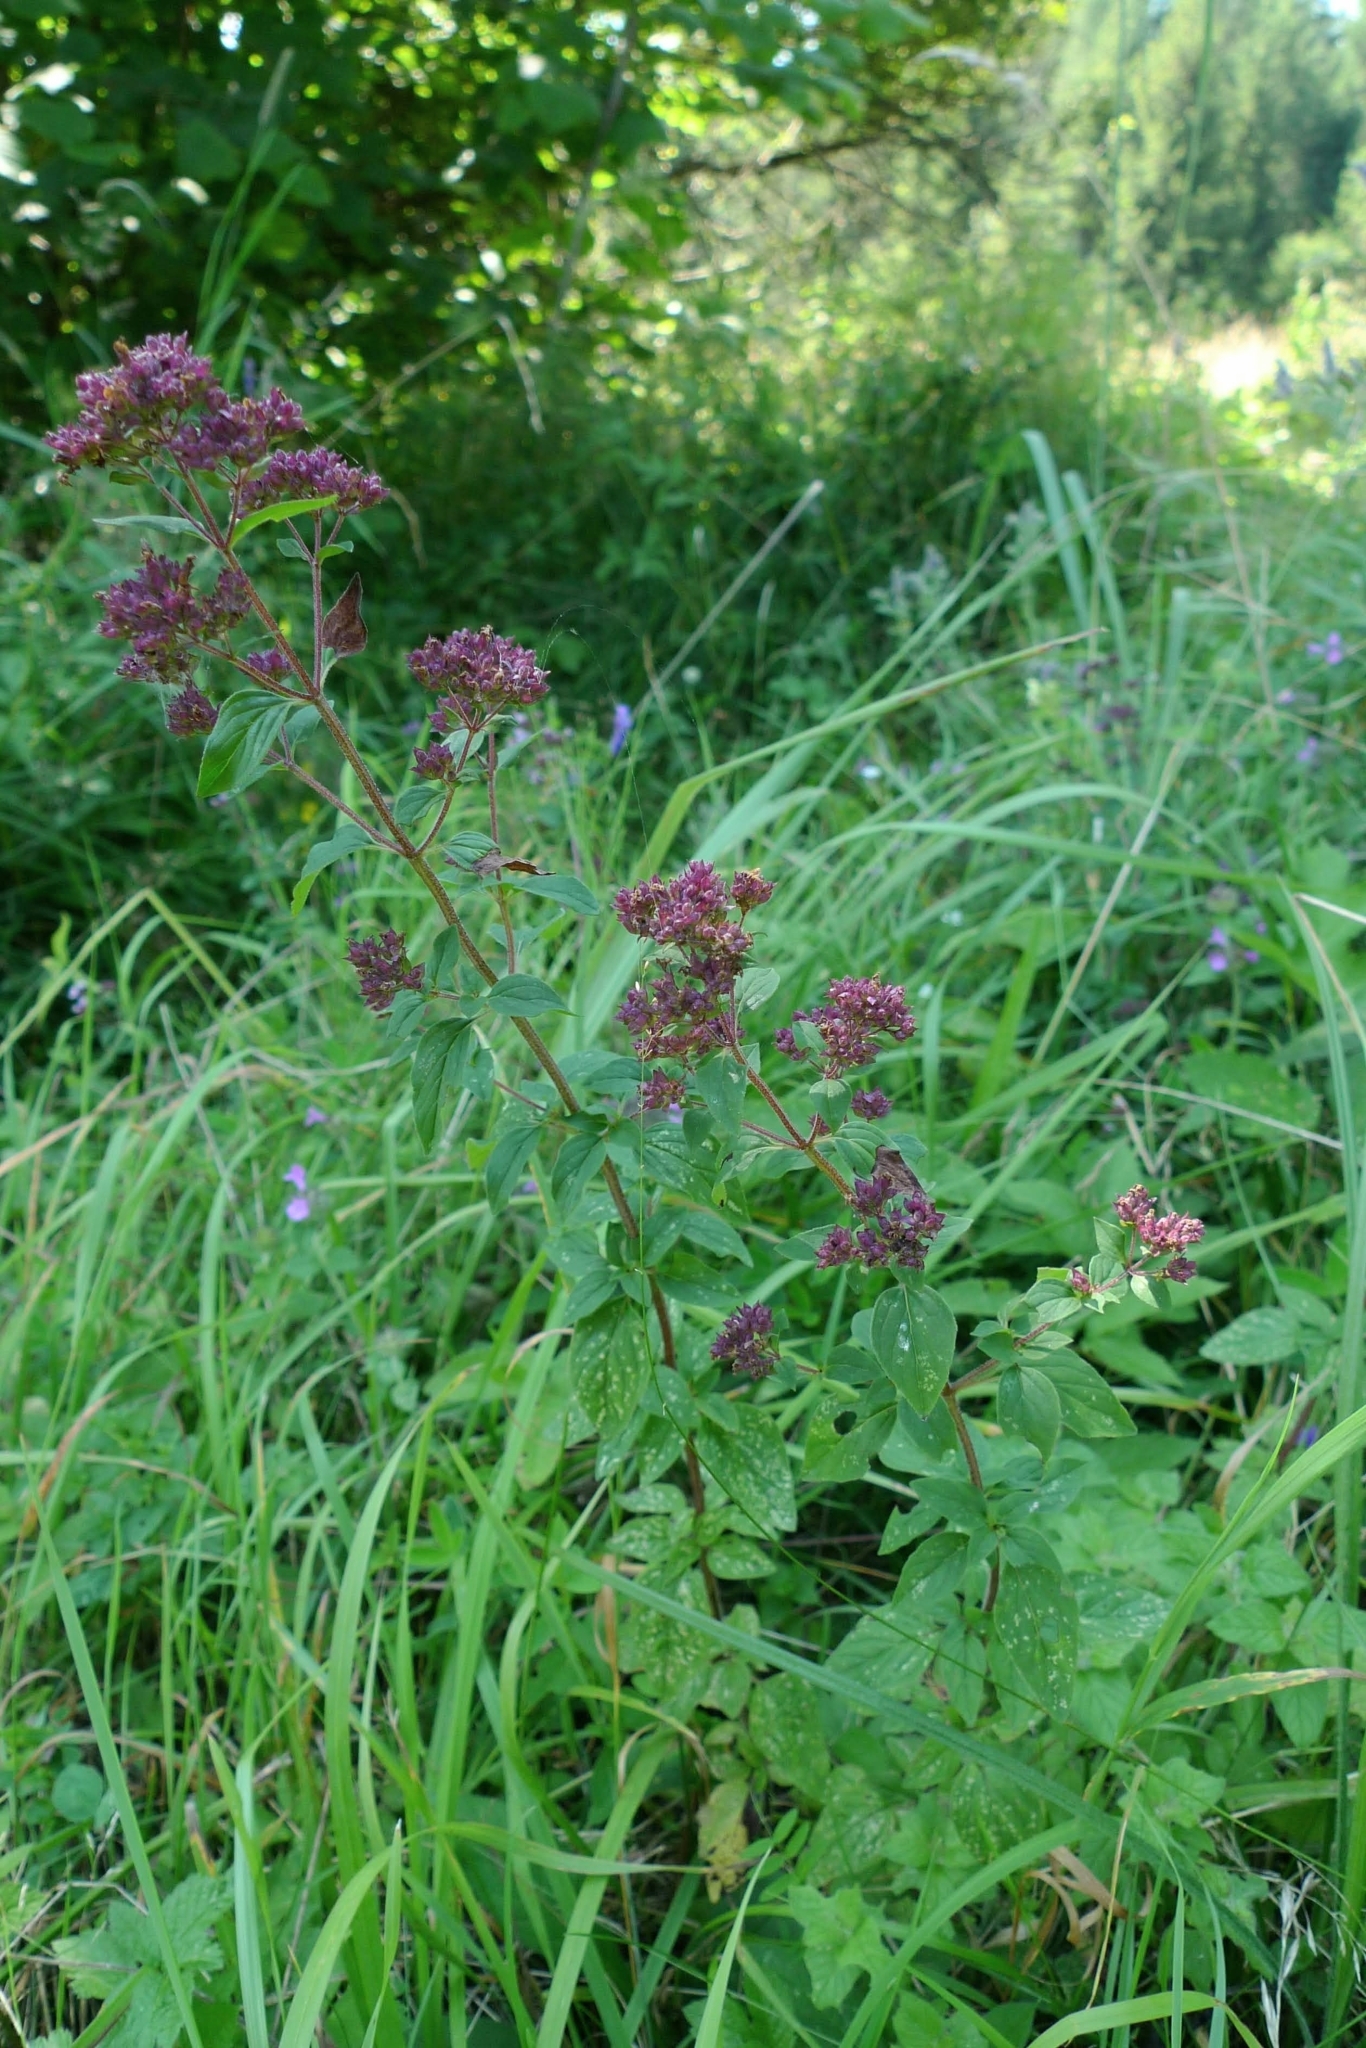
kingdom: Plantae
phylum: Tracheophyta
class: Magnoliopsida
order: Lamiales
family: Lamiaceae
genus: Origanum
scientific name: Origanum vulgare
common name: Wild marjoram
